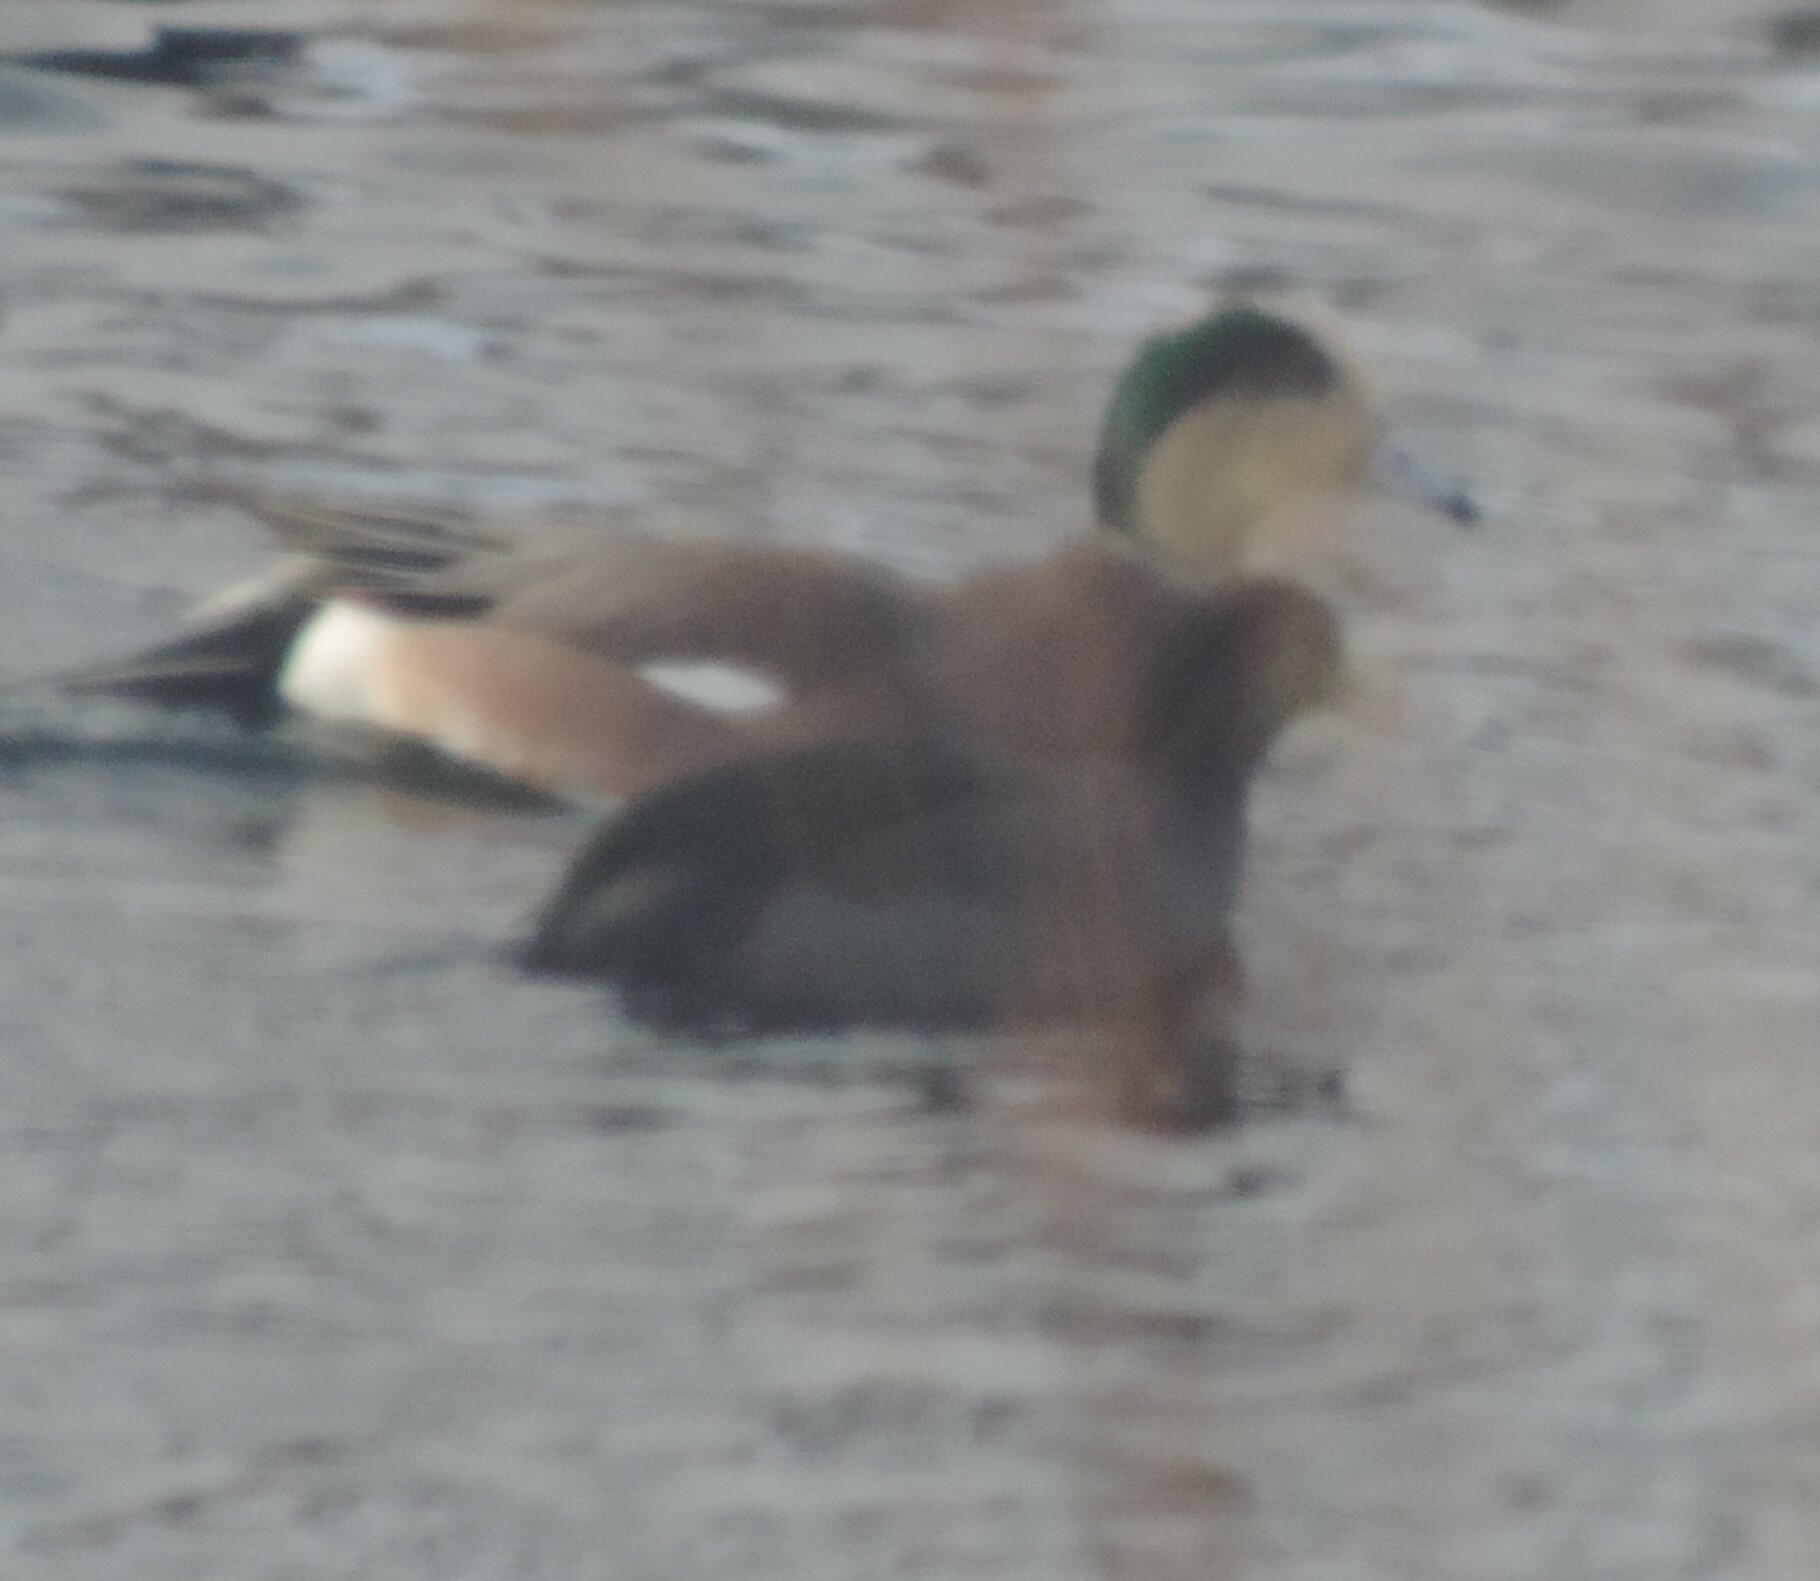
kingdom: Animalia
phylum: Chordata
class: Aves
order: Anseriformes
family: Anatidae
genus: Mareca
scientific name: Mareca americana
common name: American wigeon
